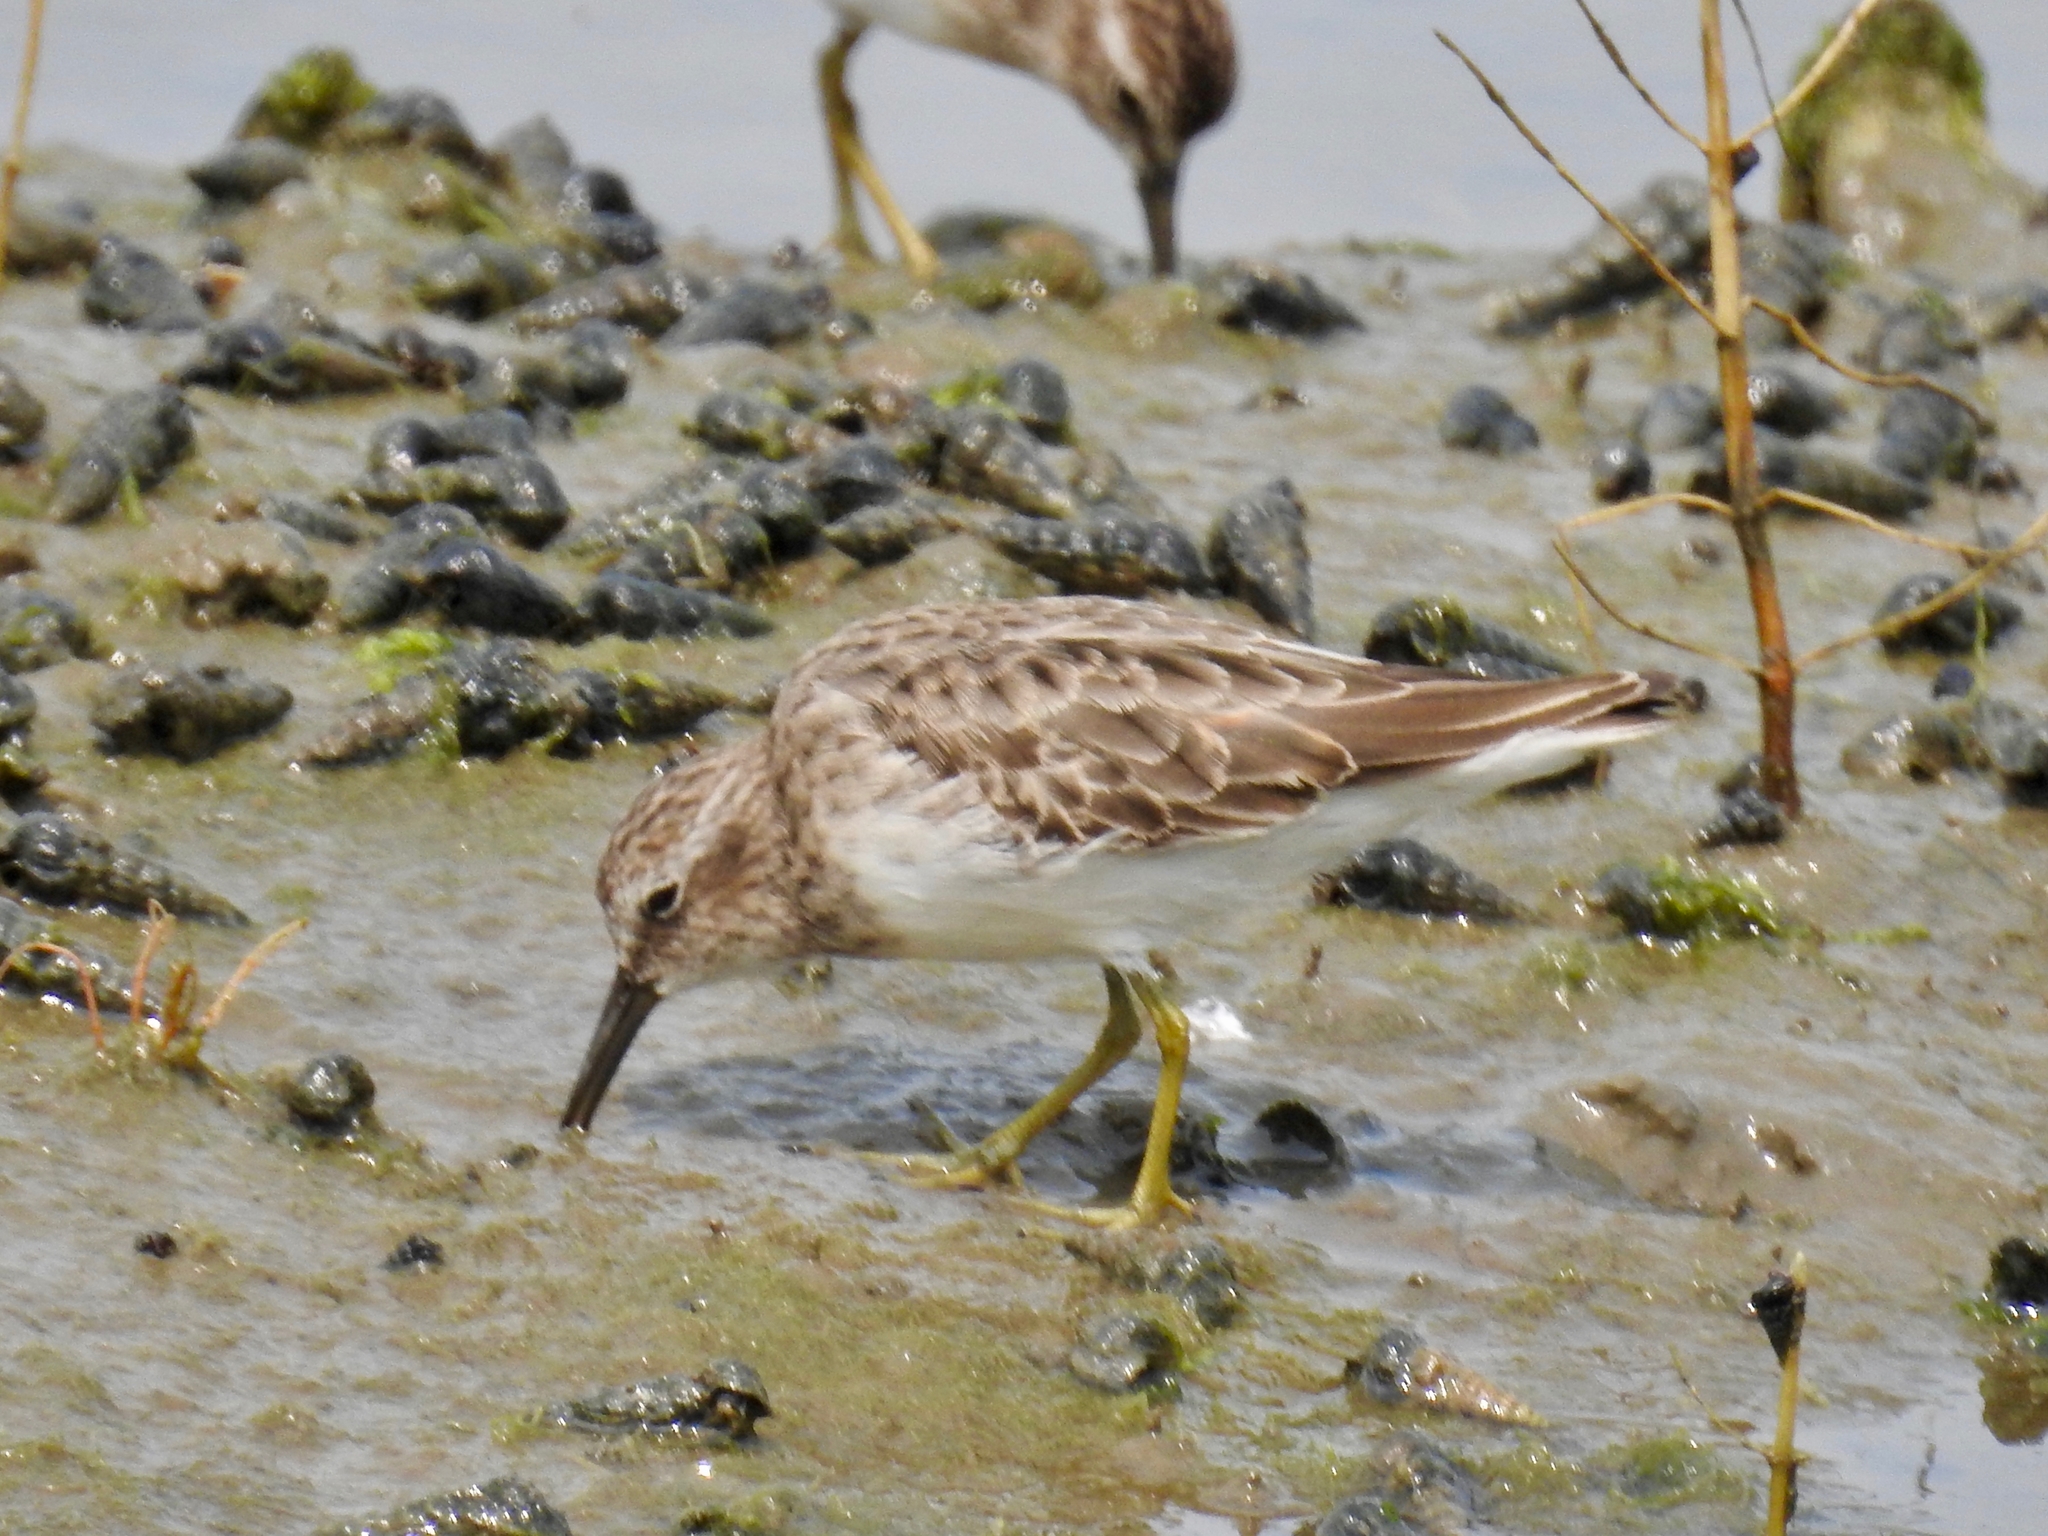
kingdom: Animalia
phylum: Chordata
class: Aves
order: Charadriiformes
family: Scolopacidae
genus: Calidris
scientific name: Calidris minutilla
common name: Least sandpiper
